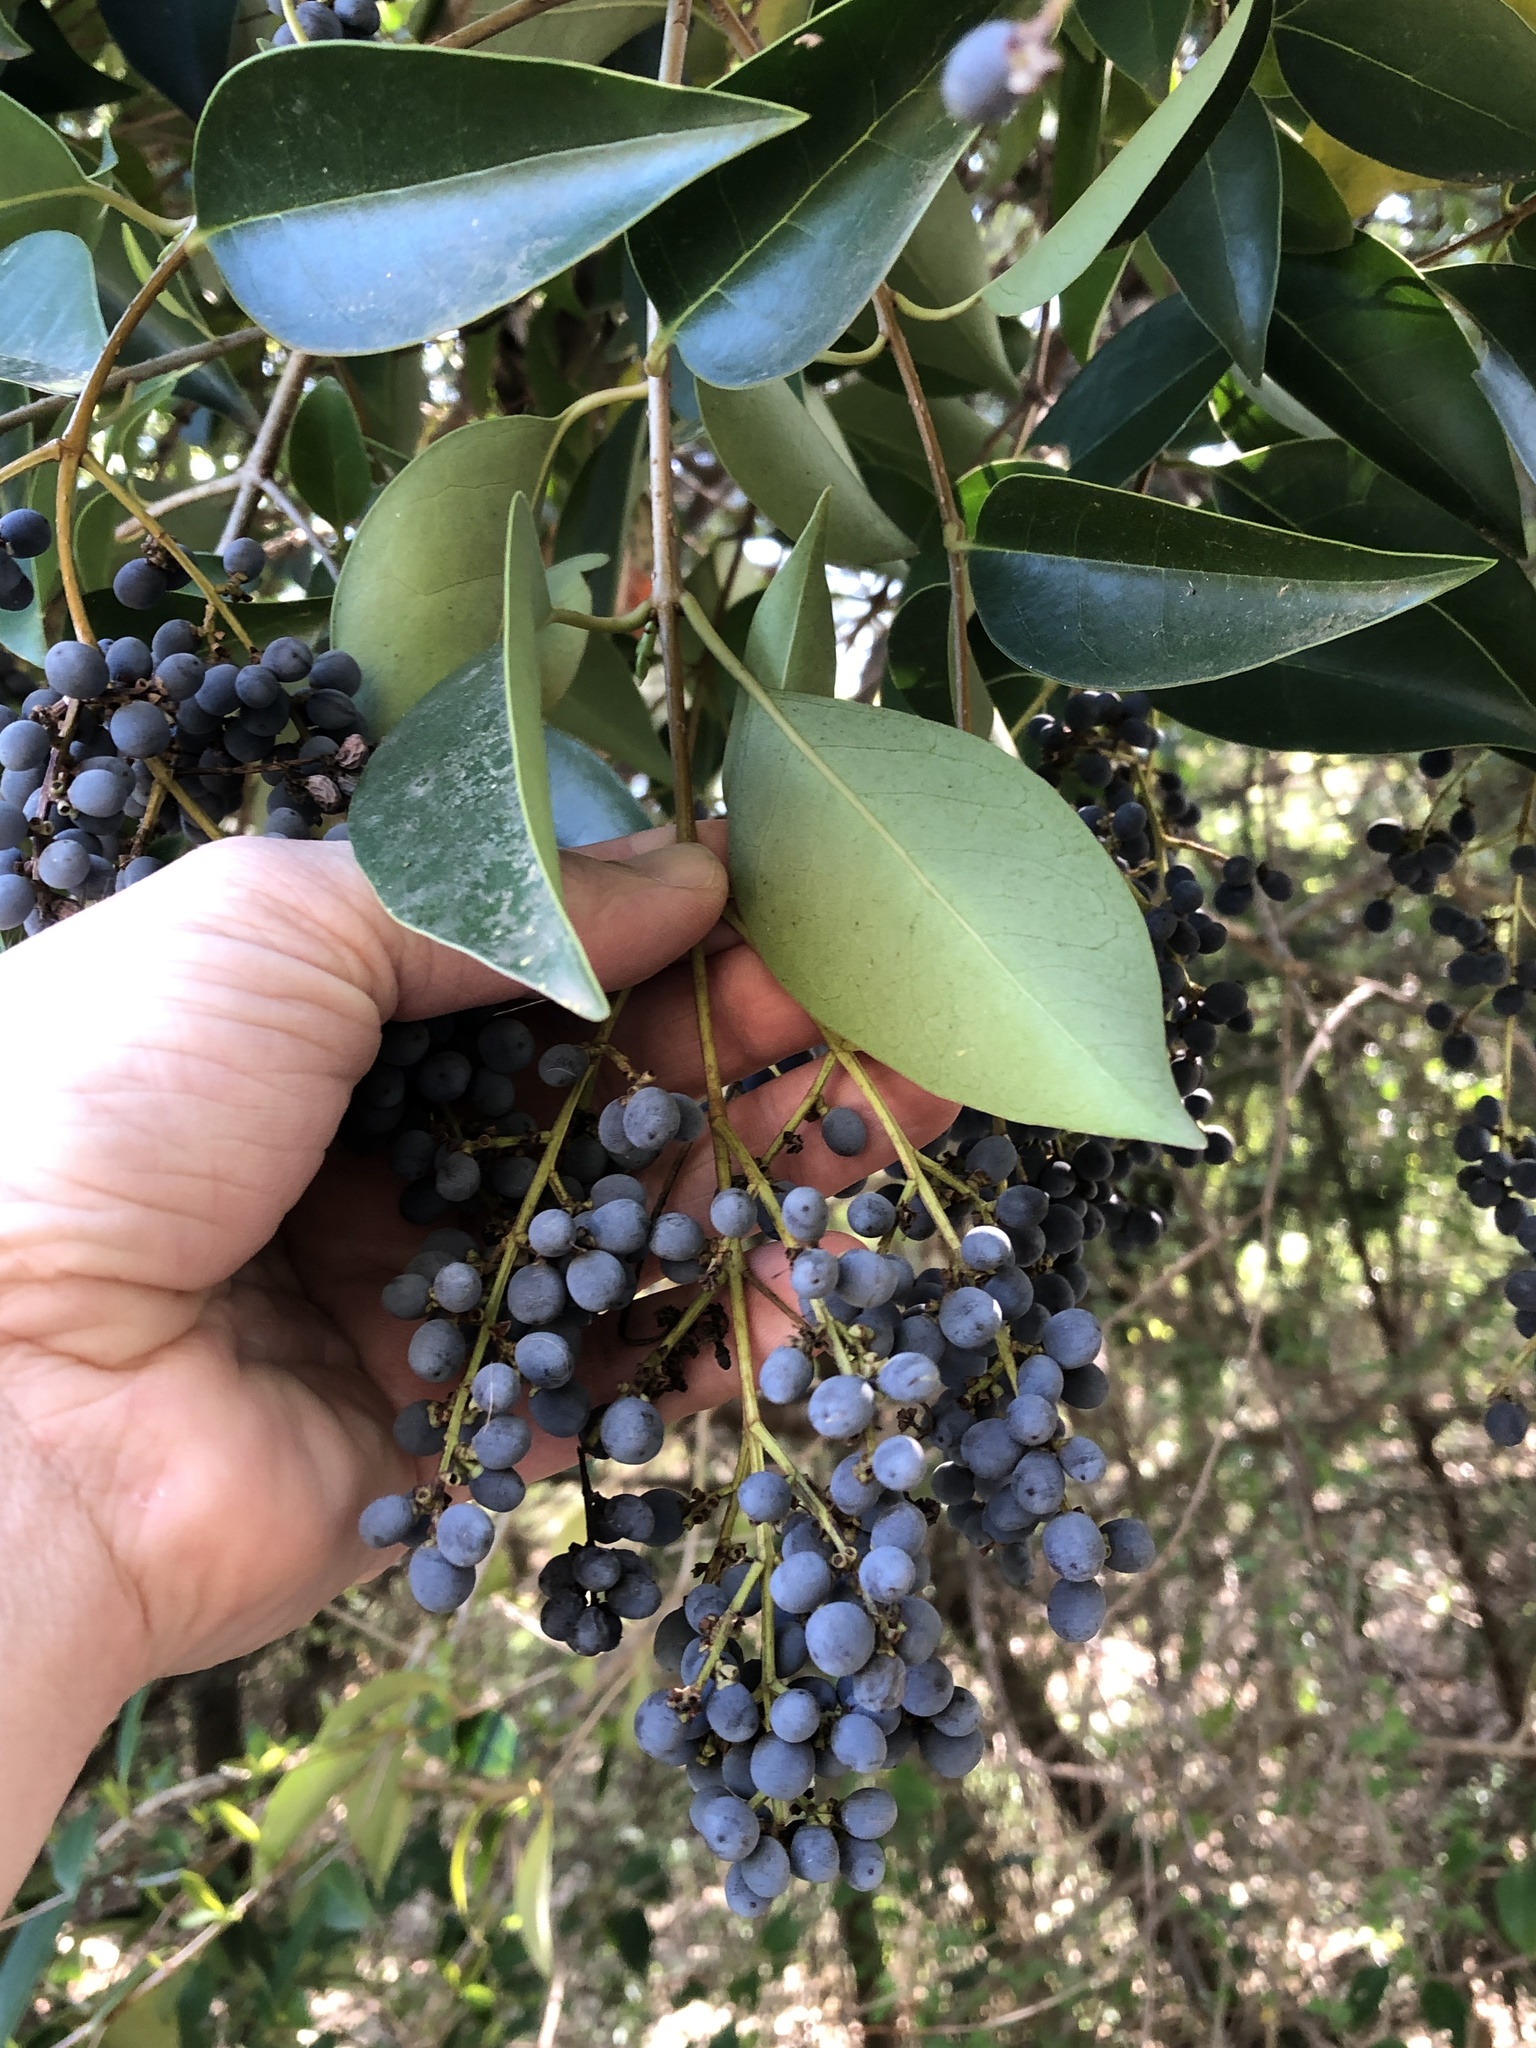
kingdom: Plantae
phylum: Tracheophyta
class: Magnoliopsida
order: Lamiales
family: Oleaceae
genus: Ligustrum
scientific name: Ligustrum lucidum
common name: Glossy privet
